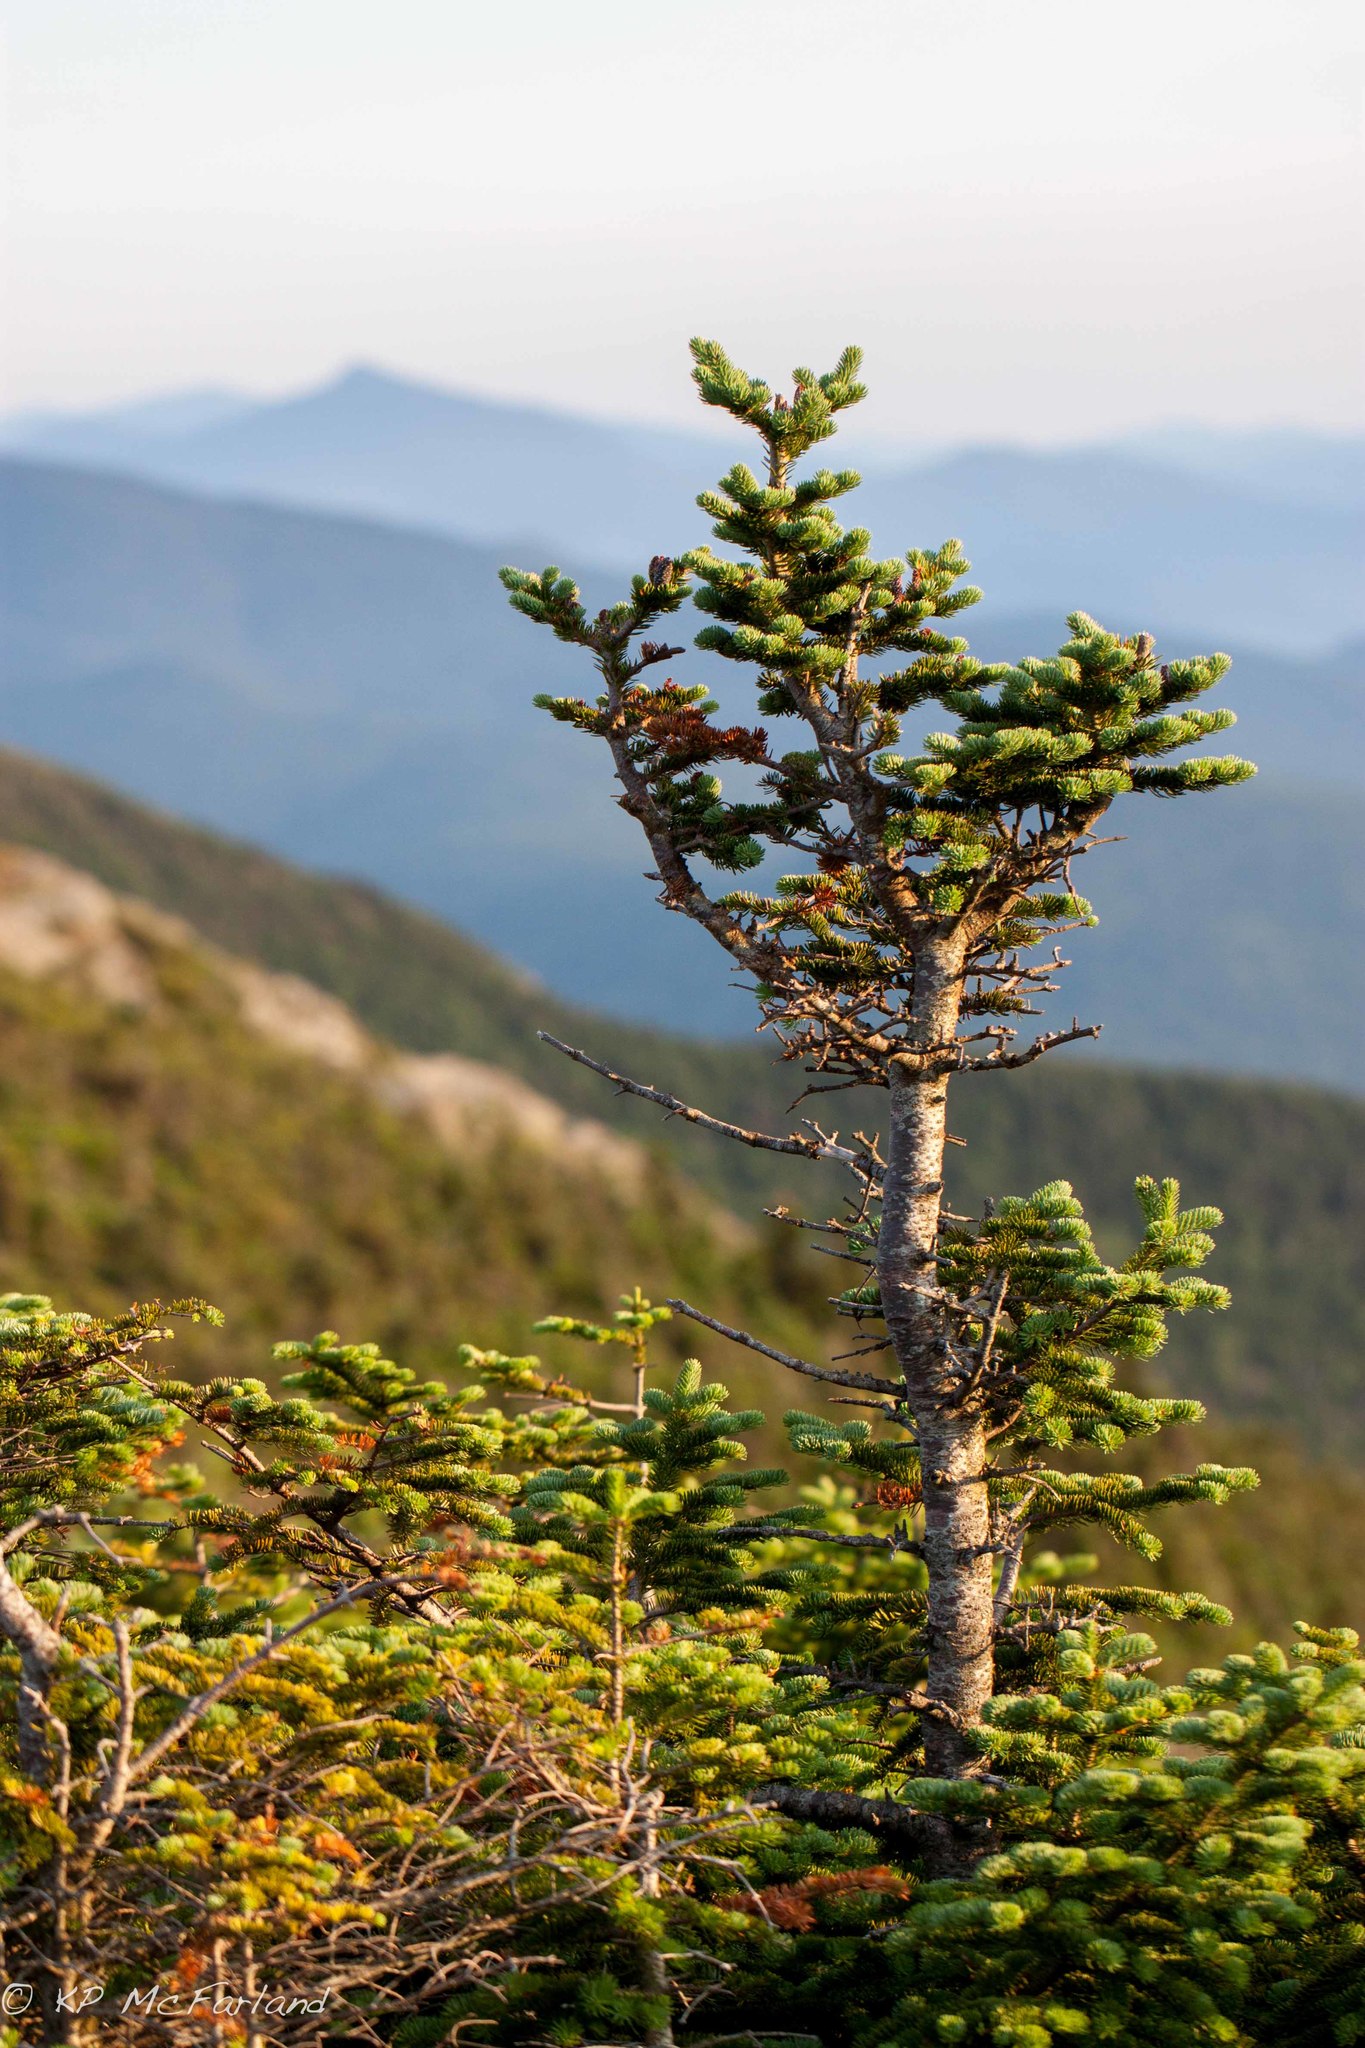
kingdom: Plantae
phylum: Tracheophyta
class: Pinopsida
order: Pinales
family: Pinaceae
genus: Abies
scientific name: Abies balsamea
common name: Balsam fir
